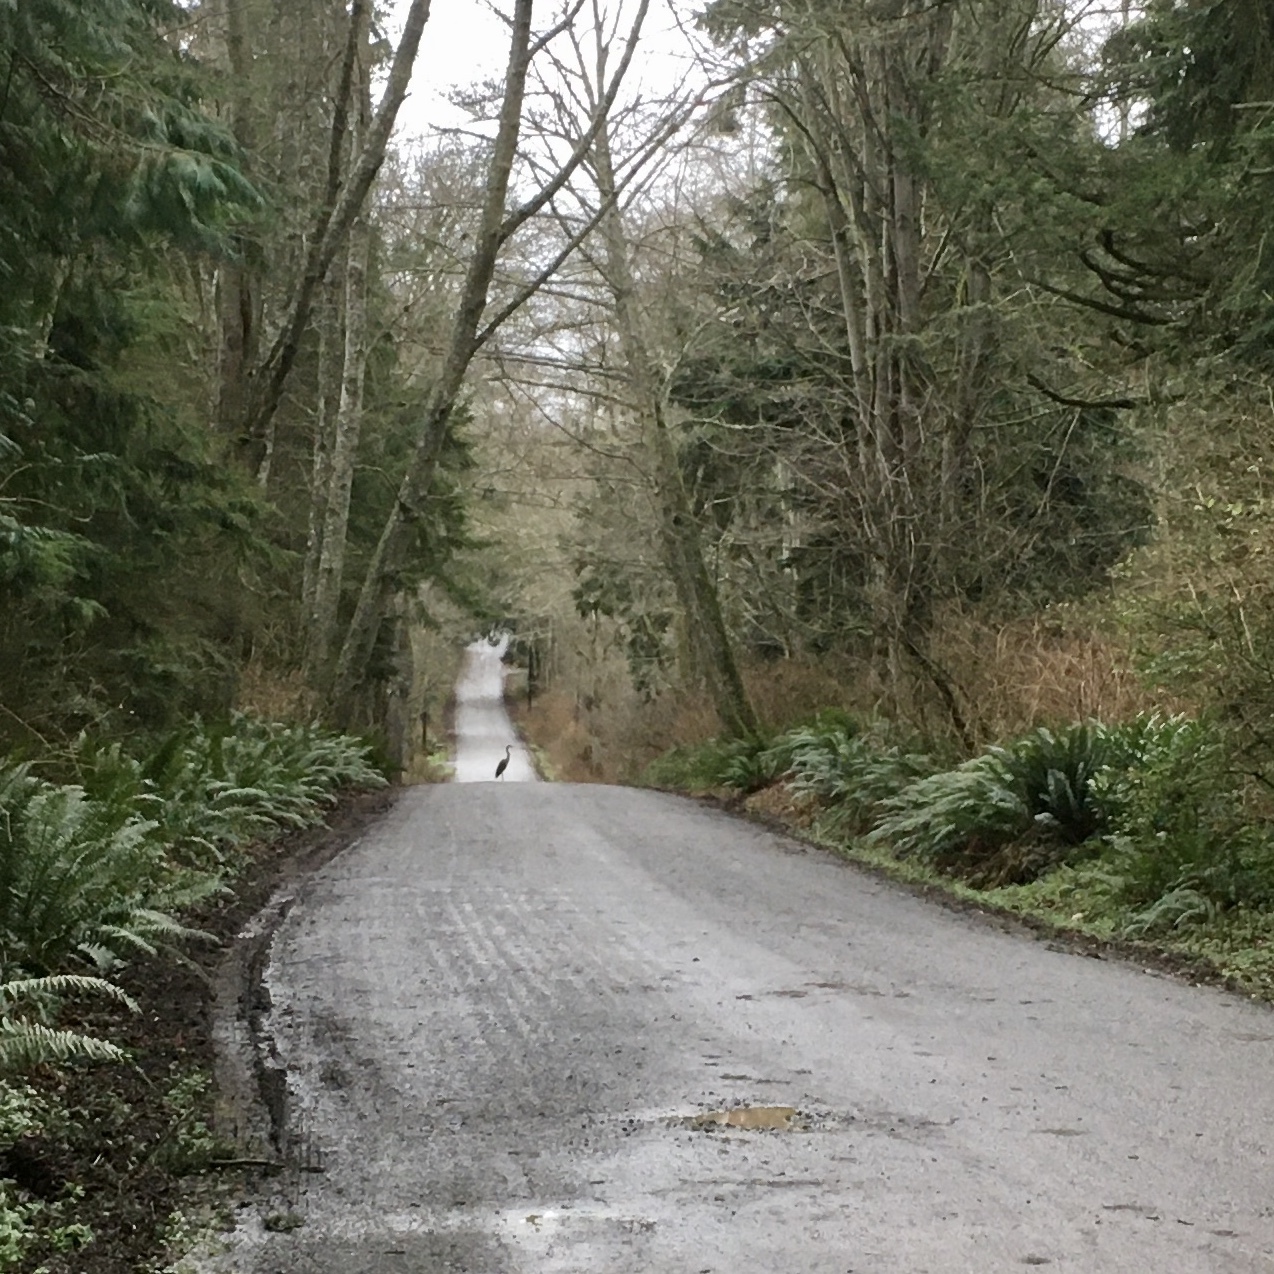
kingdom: Animalia
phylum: Chordata
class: Aves
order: Pelecaniformes
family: Ardeidae
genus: Ardea
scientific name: Ardea herodias
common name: Great blue heron
